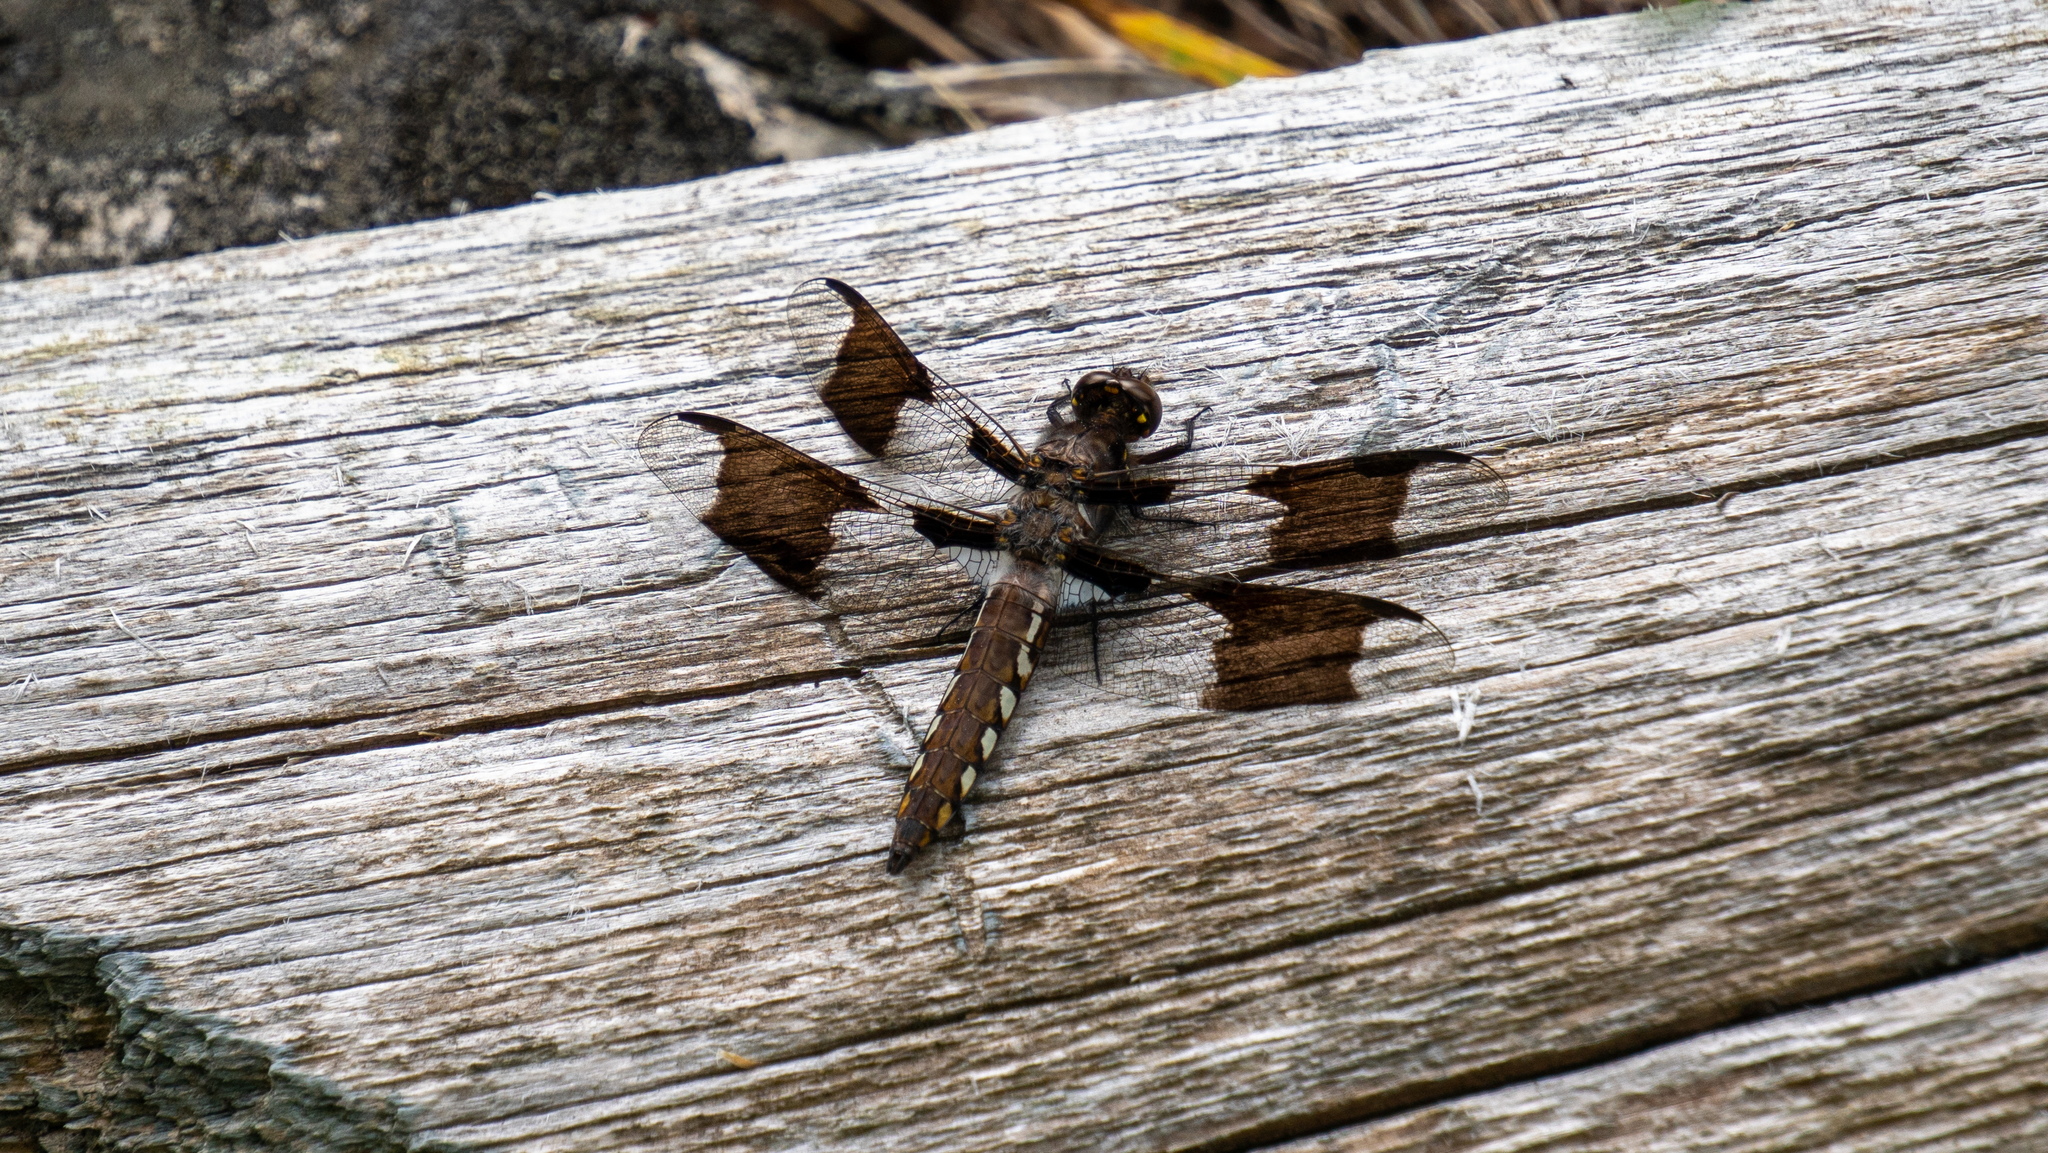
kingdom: Animalia
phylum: Arthropoda
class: Insecta
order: Odonata
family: Libellulidae
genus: Plathemis
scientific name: Plathemis lydia
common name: Common whitetail
